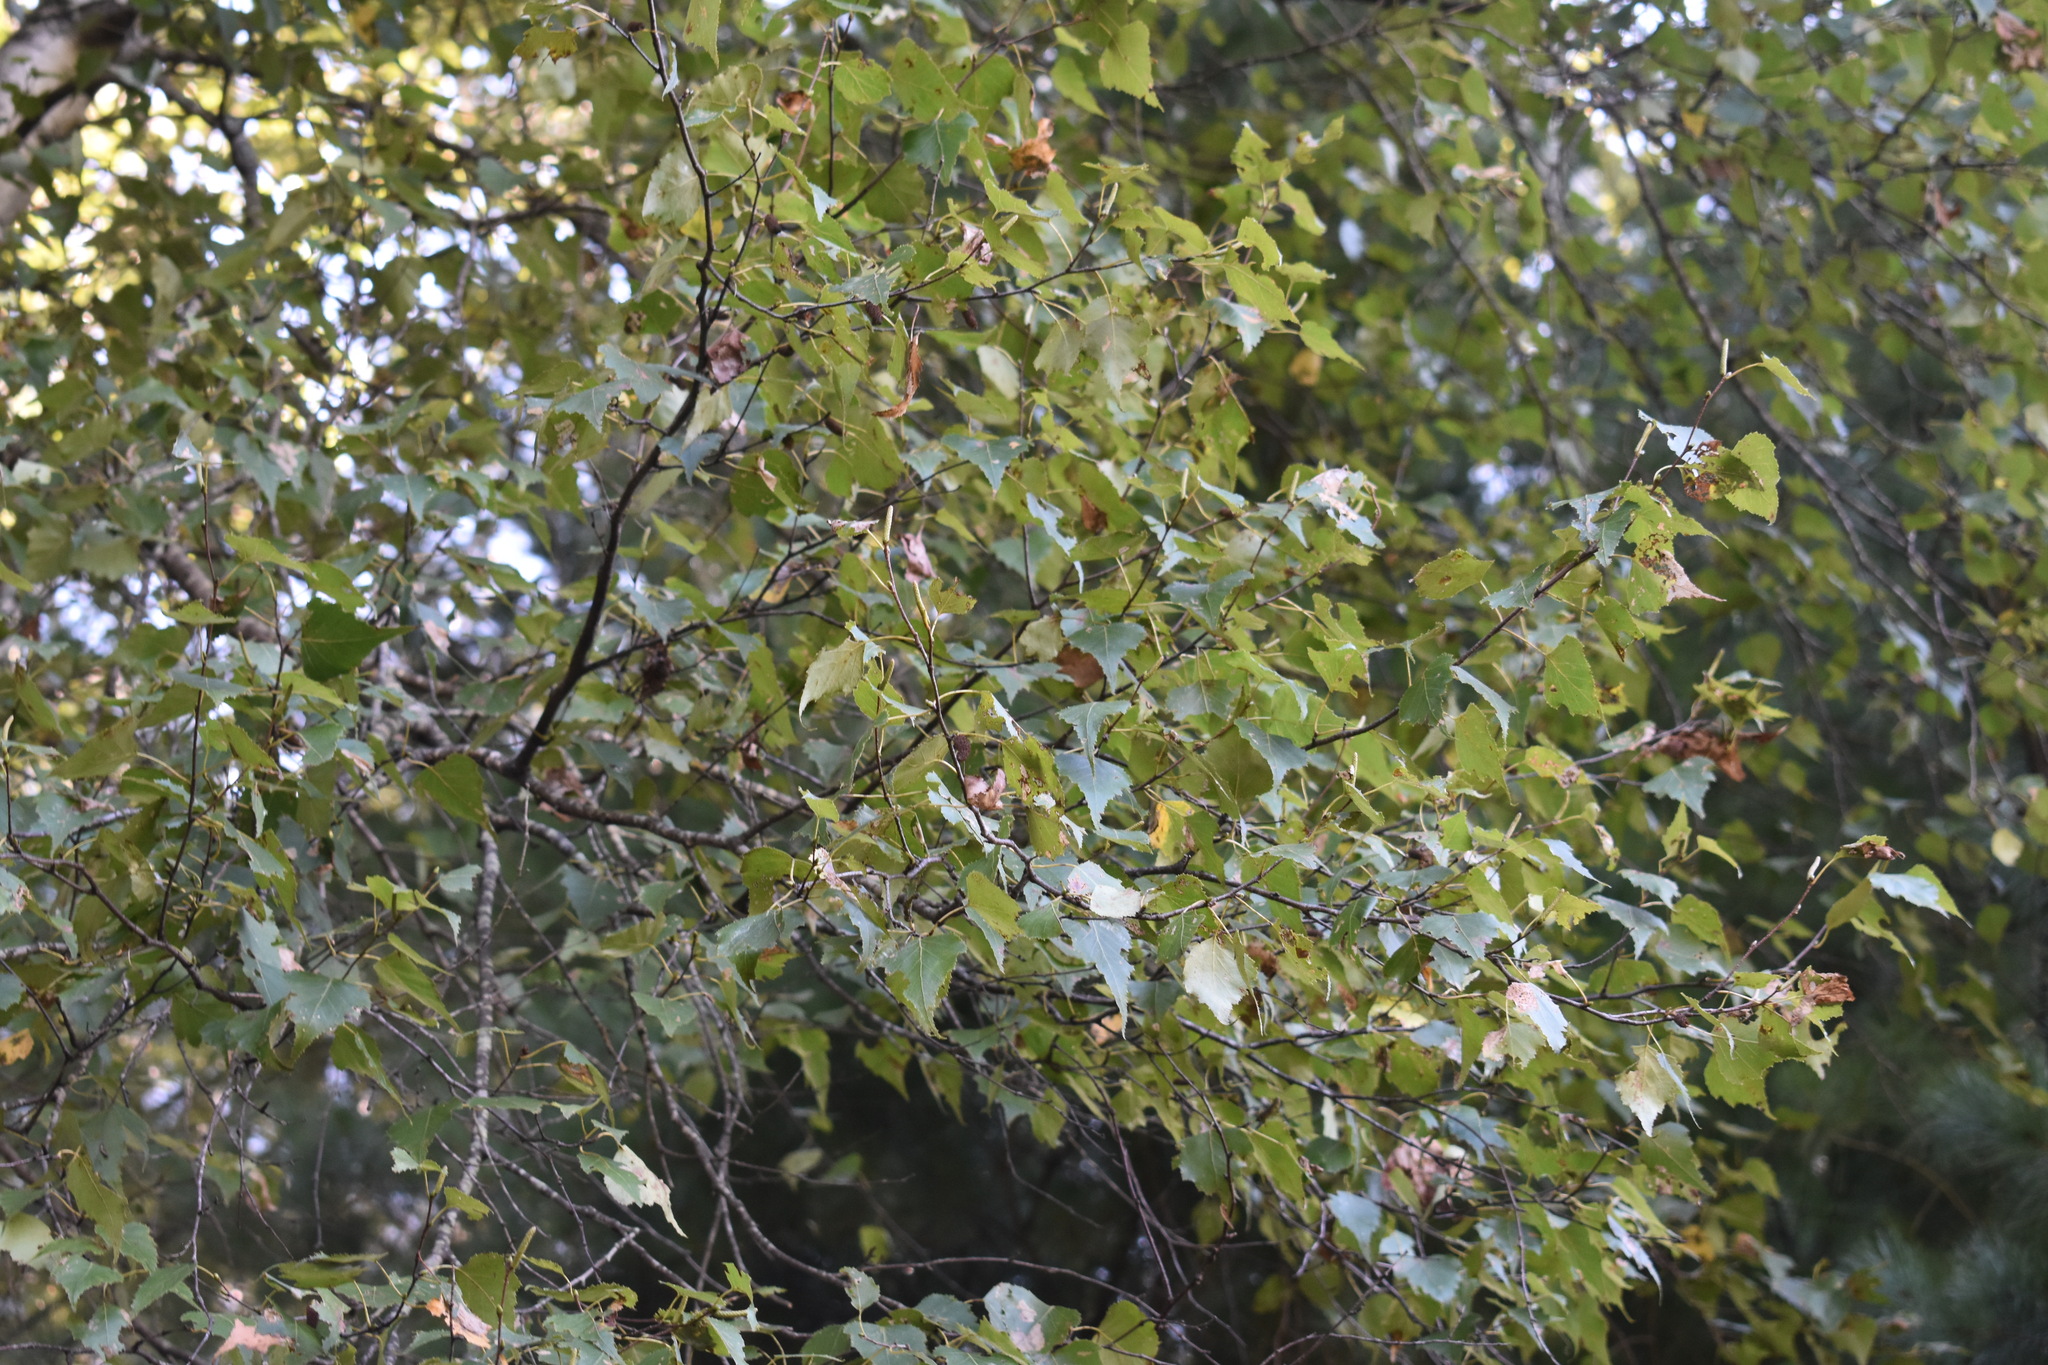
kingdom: Plantae
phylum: Tracheophyta
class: Magnoliopsida
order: Fagales
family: Betulaceae
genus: Betula
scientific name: Betula populifolia
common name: Fire birch
